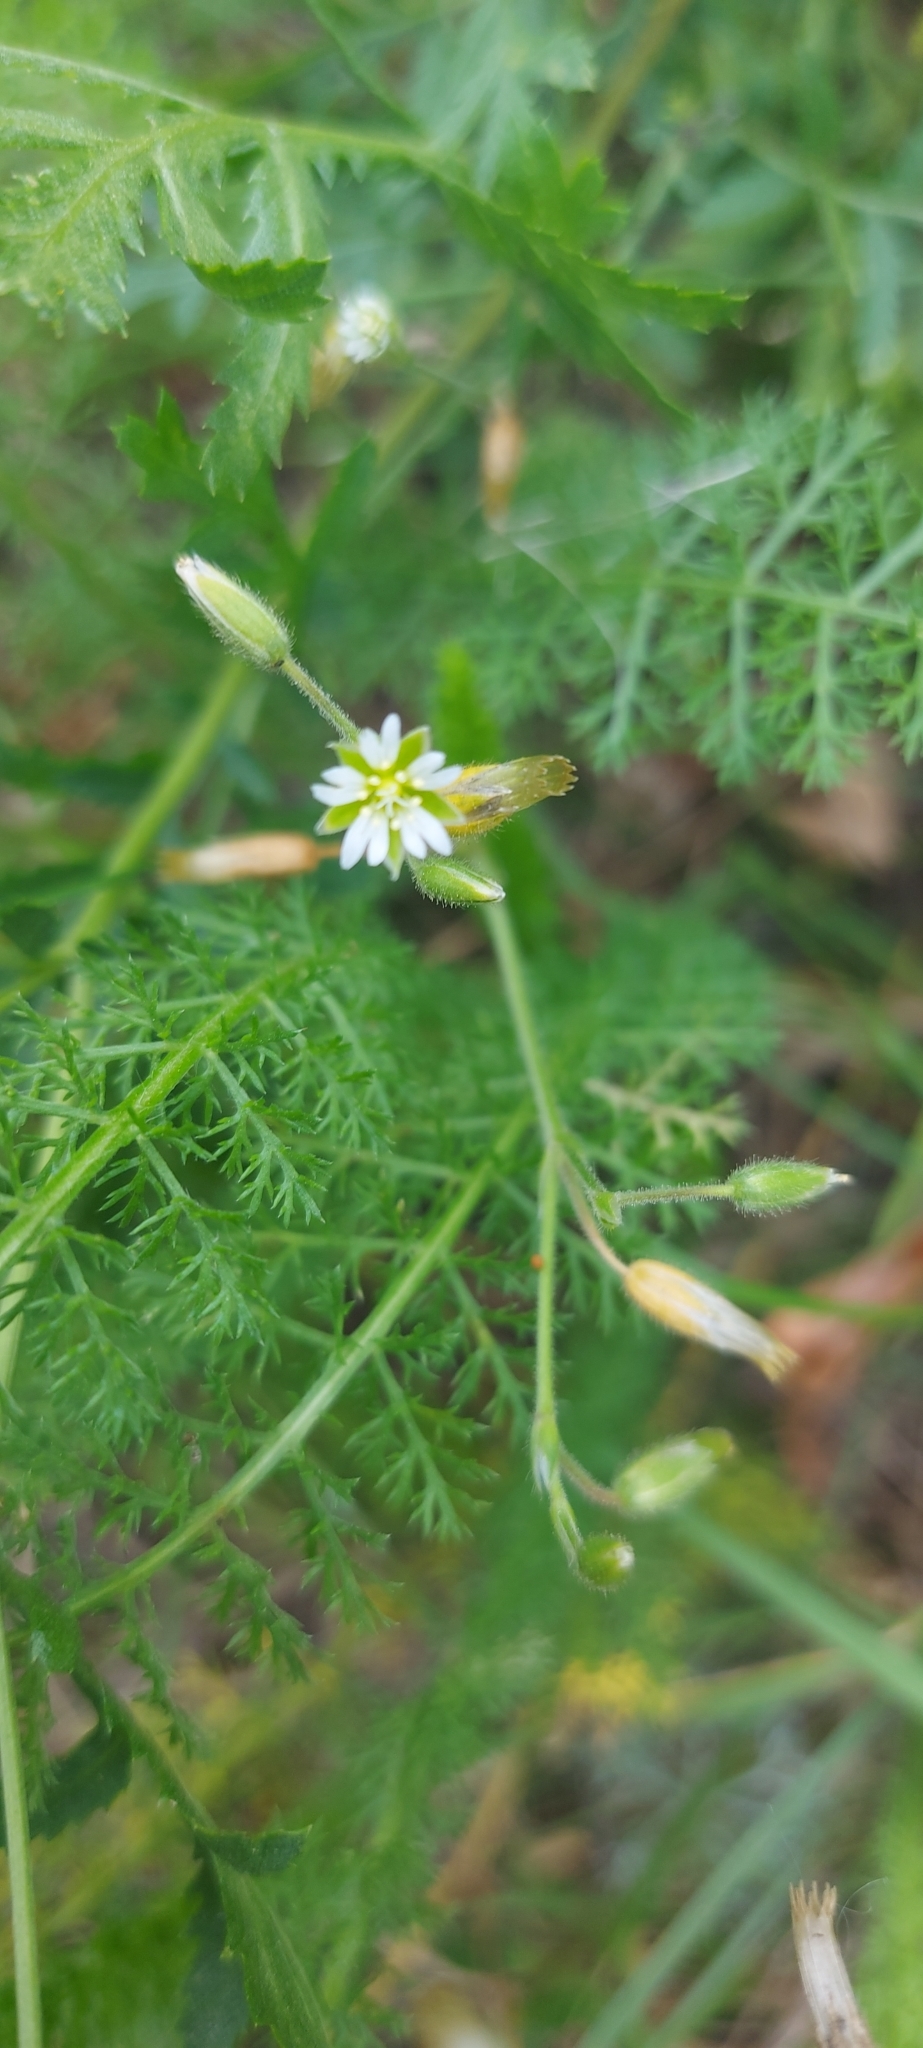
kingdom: Plantae
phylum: Tracheophyta
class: Magnoliopsida
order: Caryophyllales
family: Caryophyllaceae
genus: Cerastium
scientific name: Cerastium holosteoides
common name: Big chickweed
